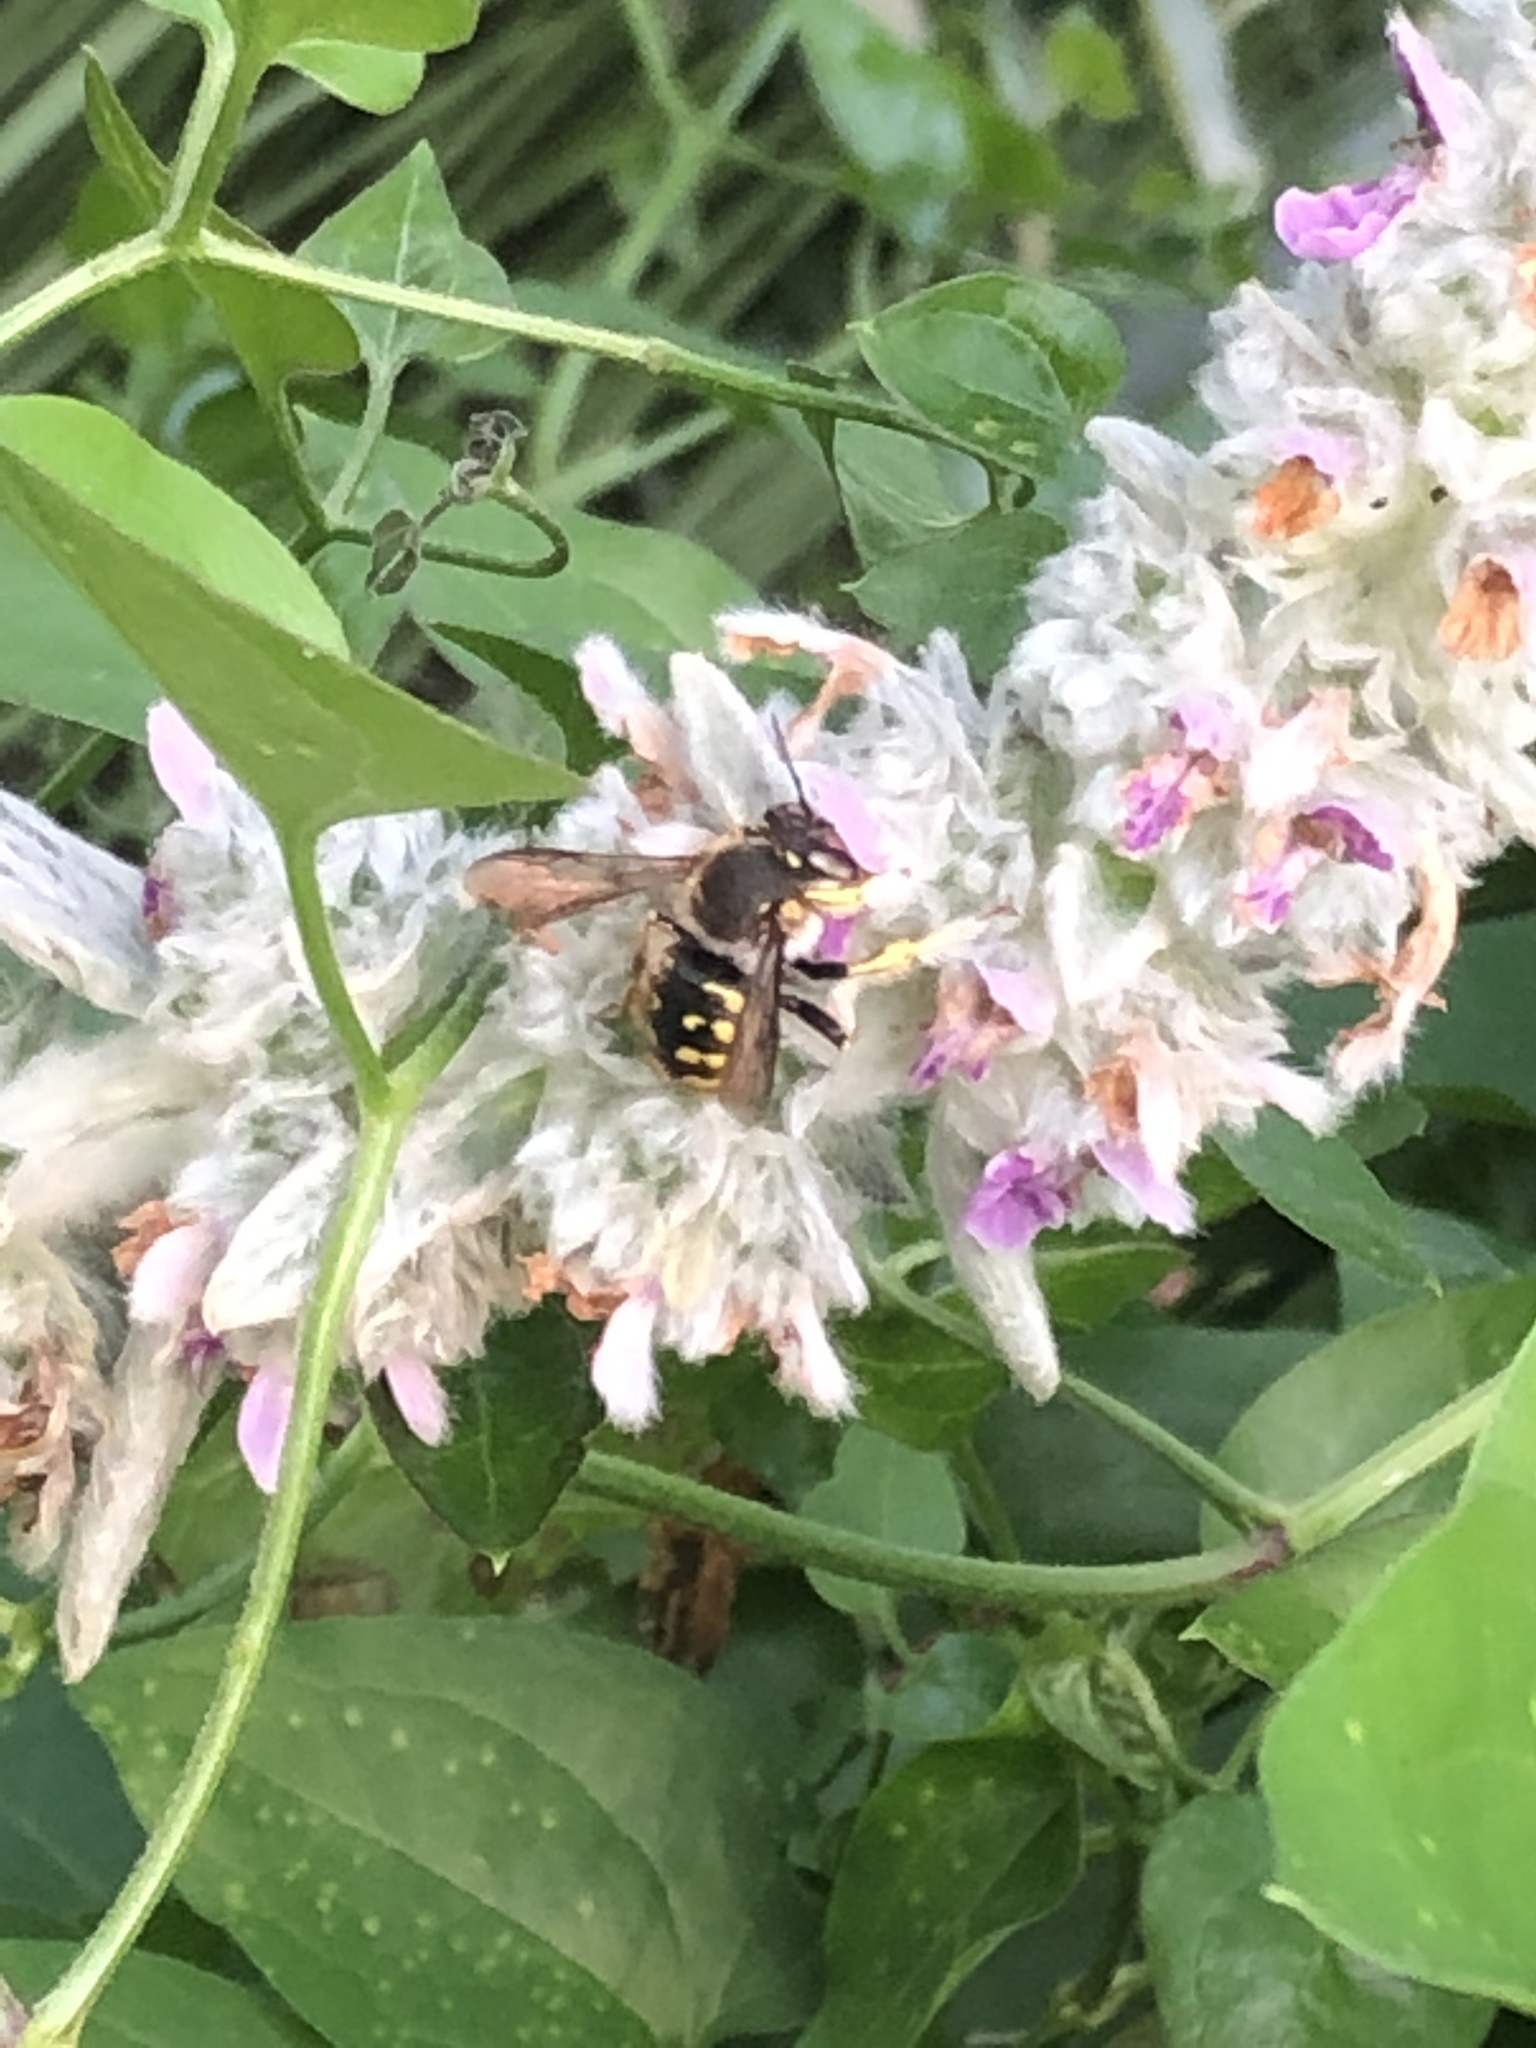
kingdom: Animalia
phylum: Arthropoda
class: Insecta
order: Hymenoptera
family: Megachilidae
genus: Anthidium
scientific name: Anthidium manicatum
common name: Wool carder bee
